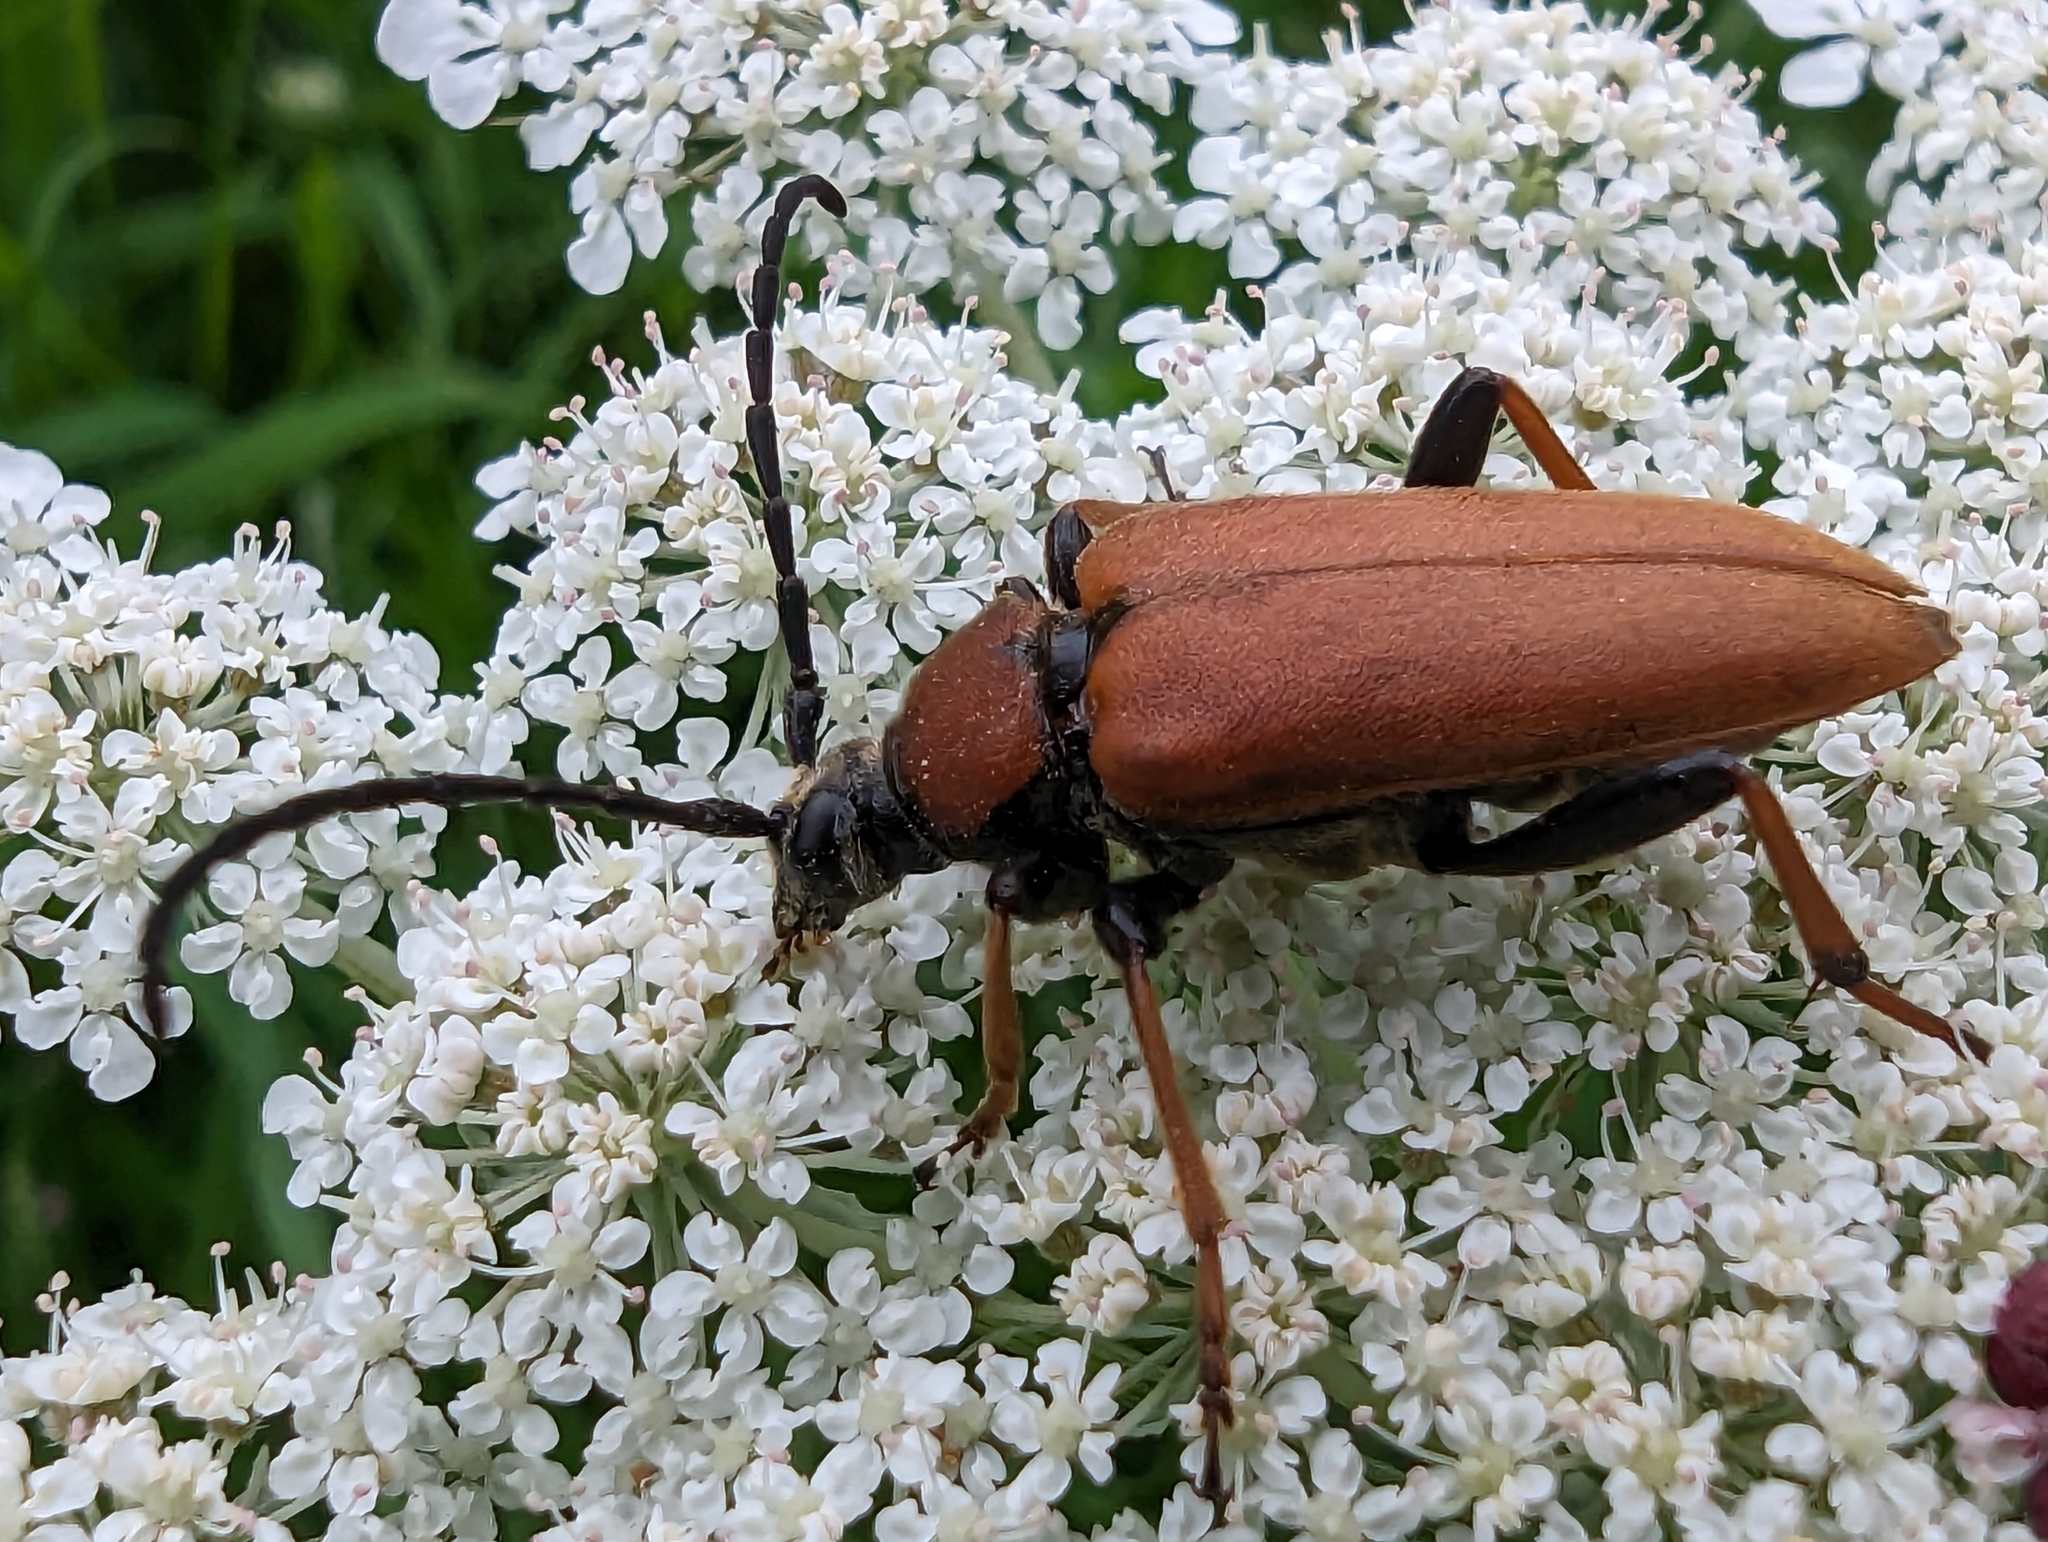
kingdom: Animalia
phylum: Arthropoda
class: Insecta
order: Coleoptera
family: Cerambycidae
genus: Stictoleptura
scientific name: Stictoleptura rubra
